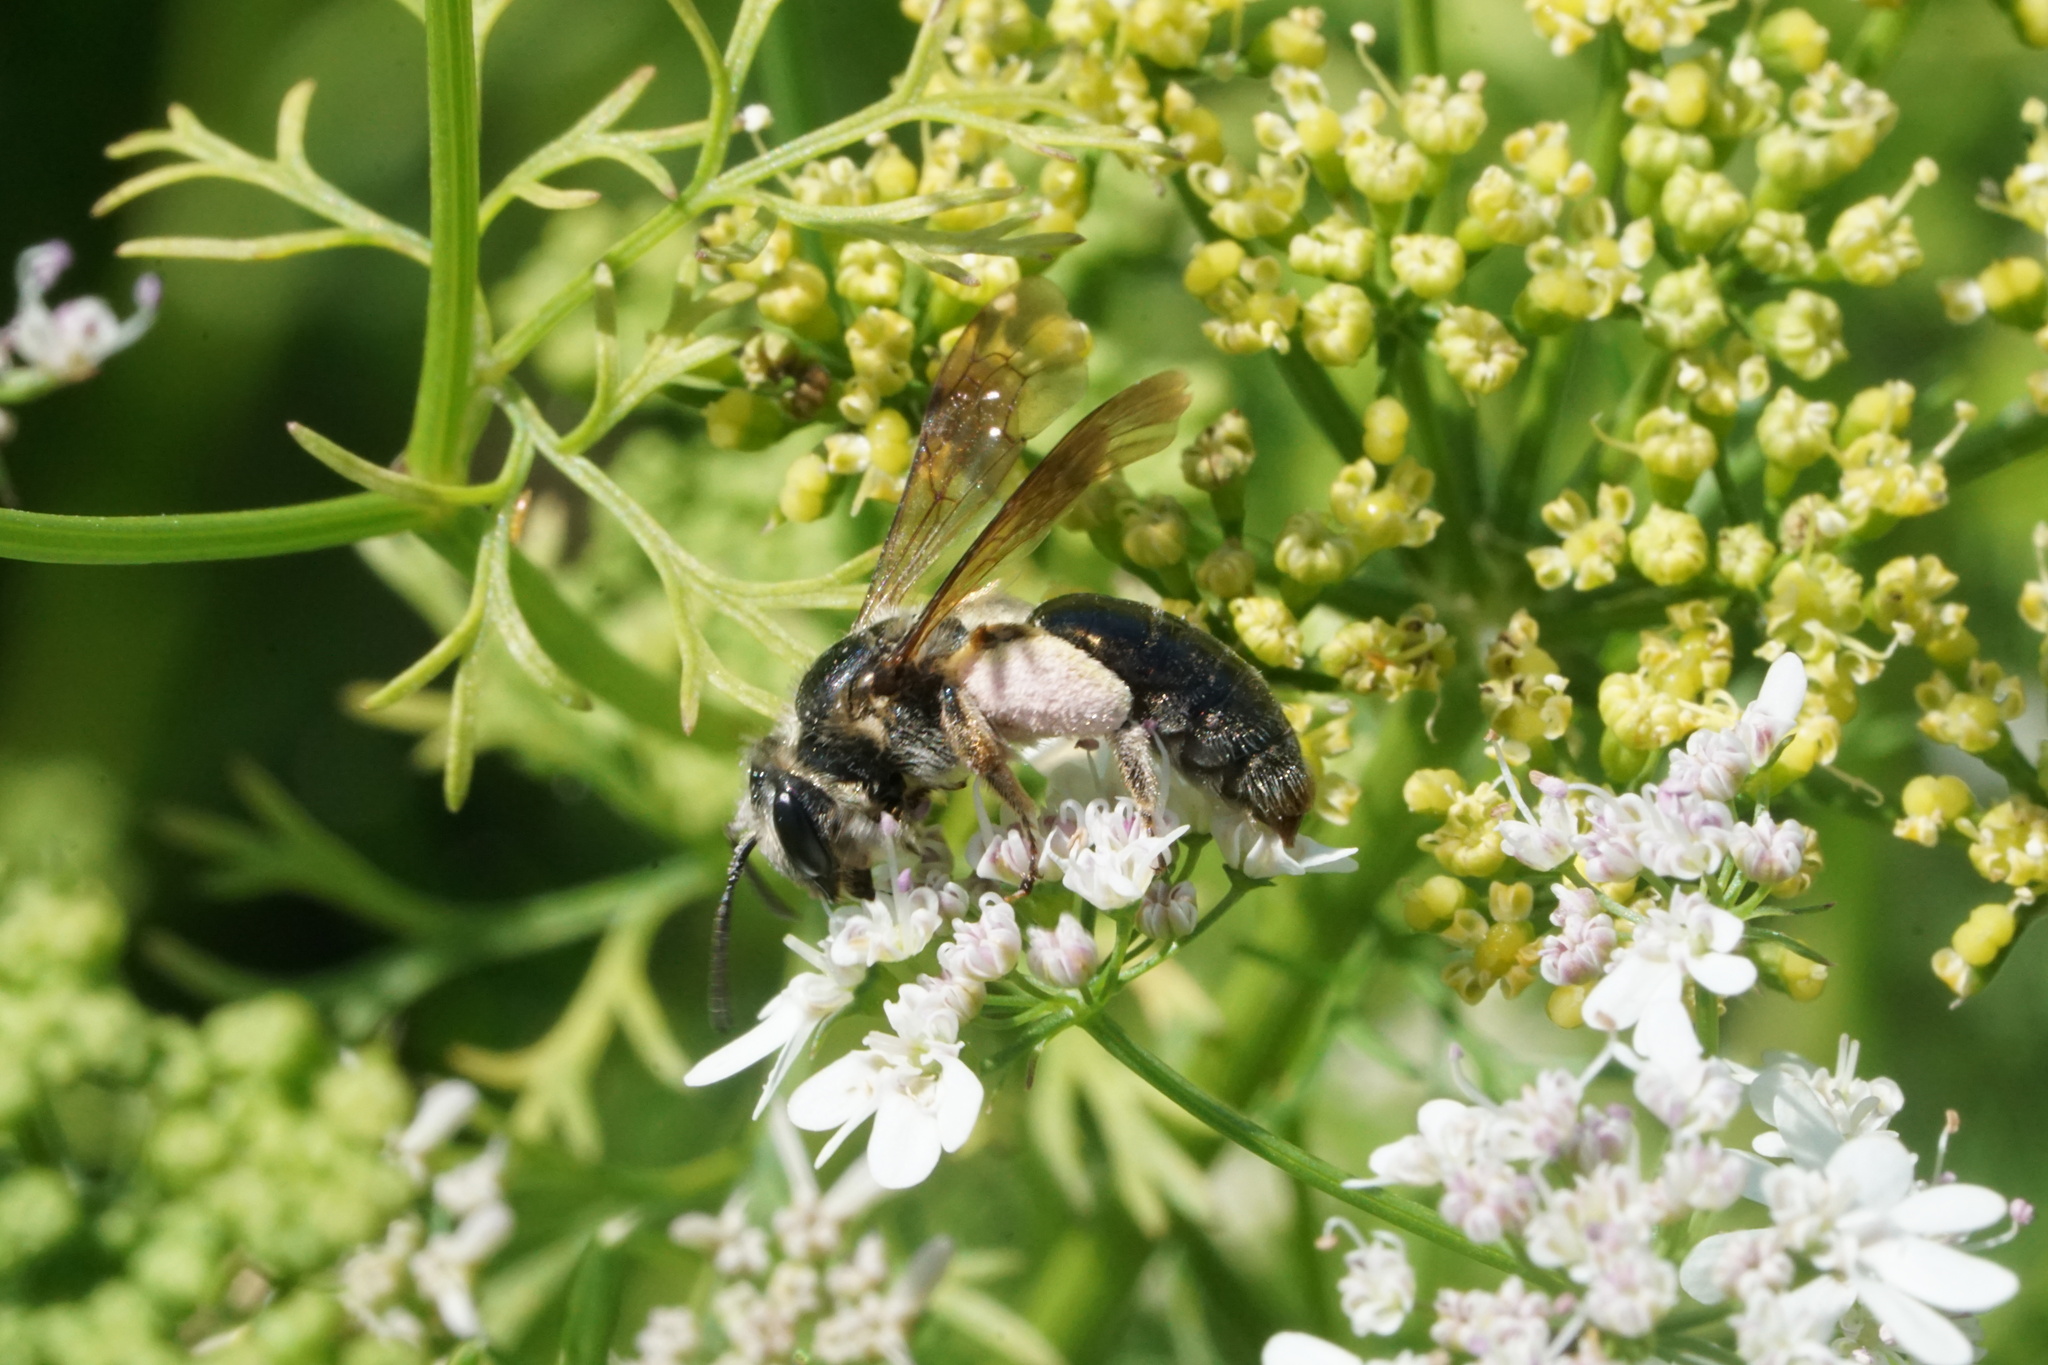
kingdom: Animalia
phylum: Arthropoda
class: Insecta
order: Hymenoptera
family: Andrenidae
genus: Andrena
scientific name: Andrena crataegi
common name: Hawthorn mining bee
